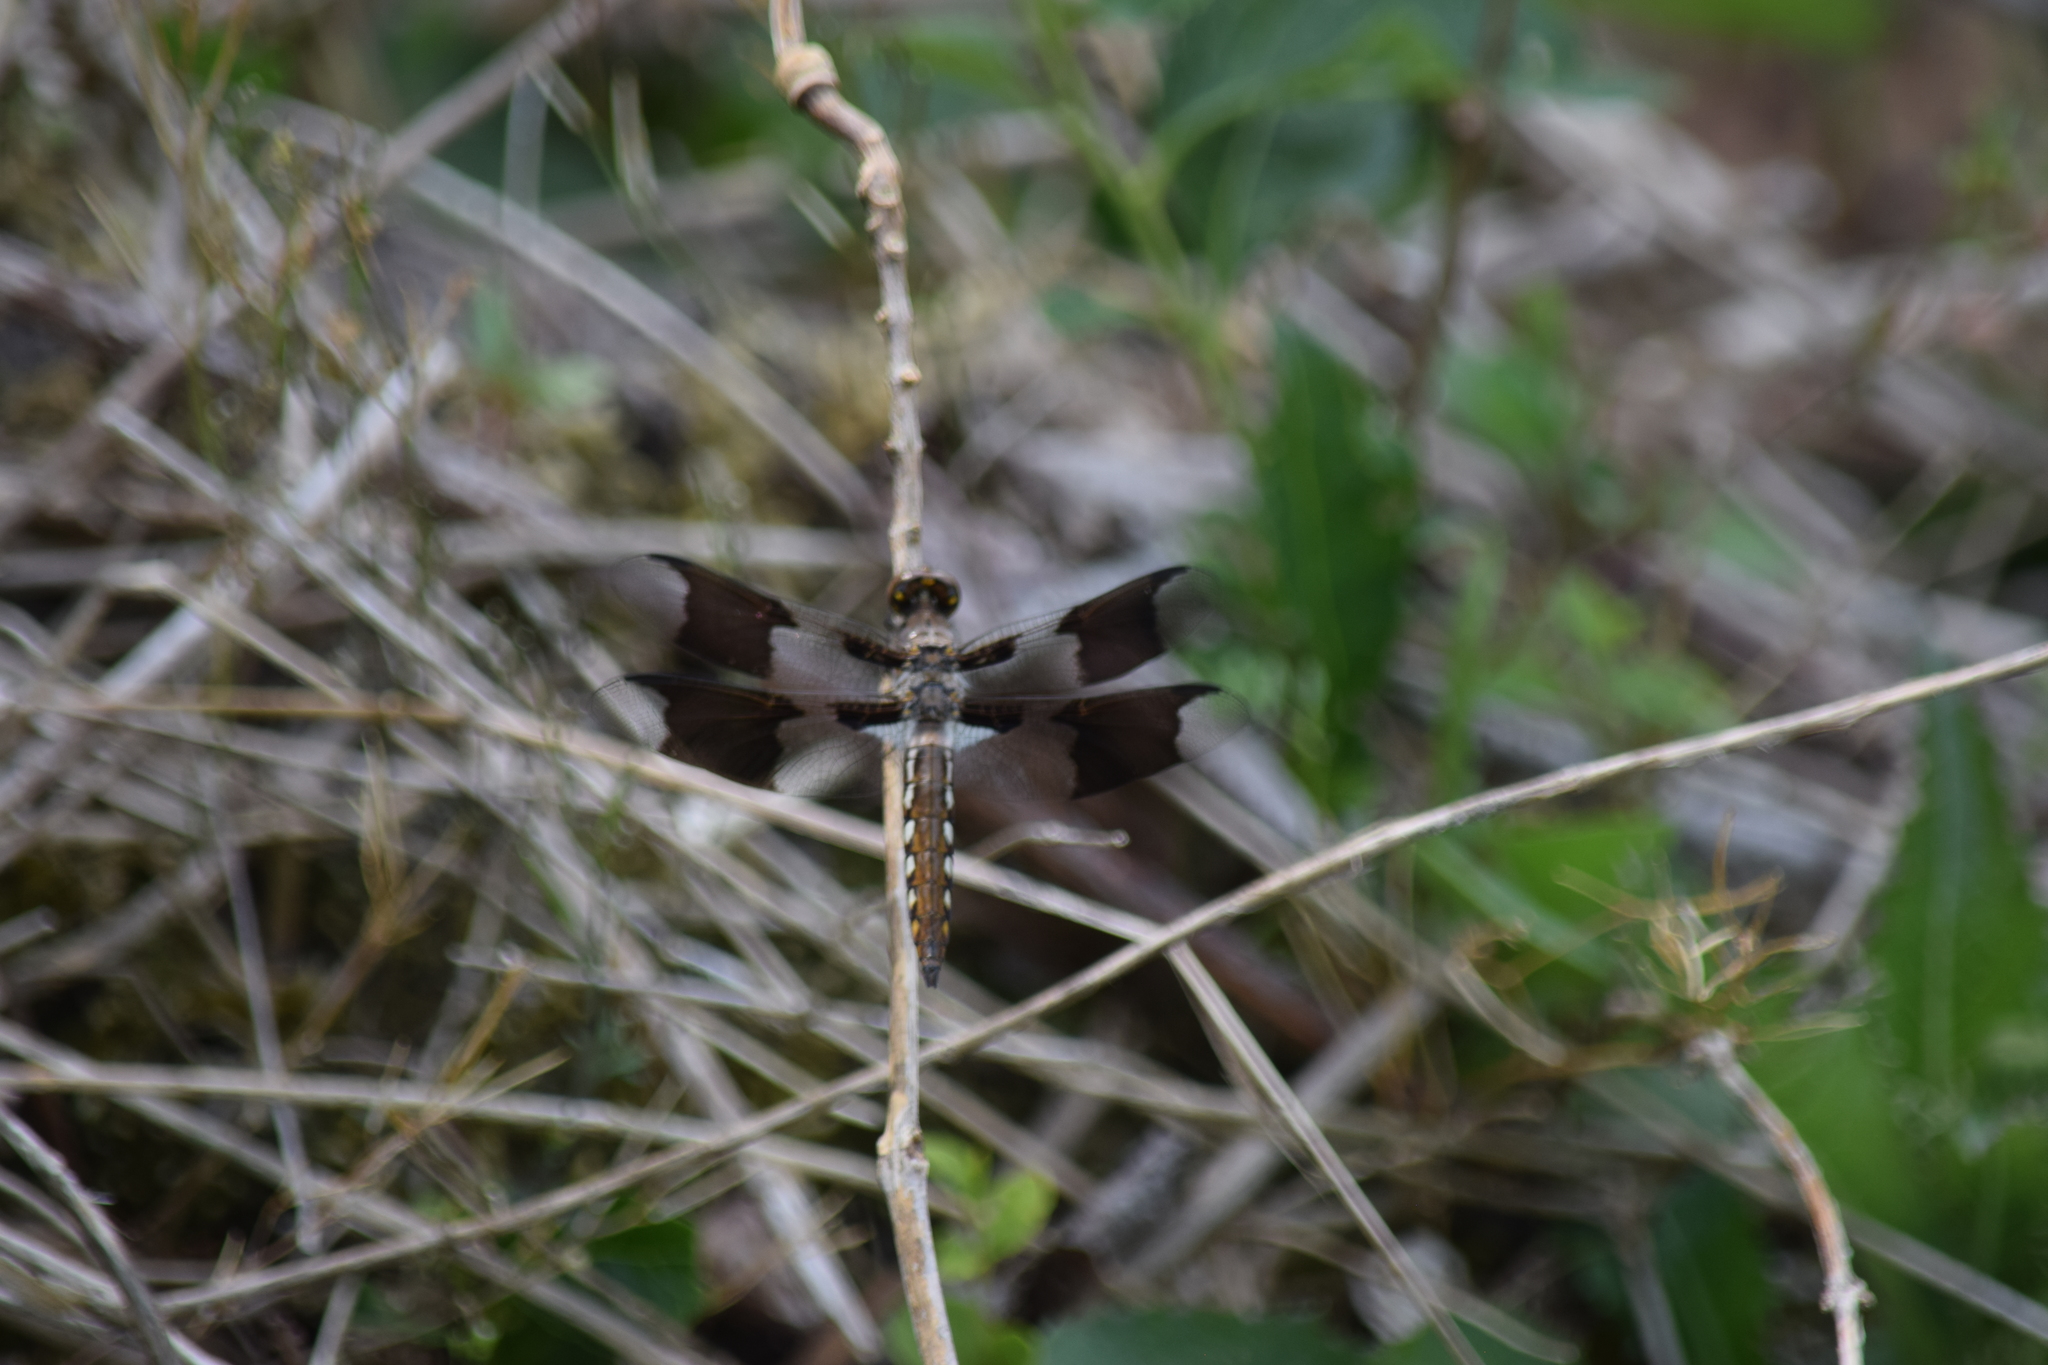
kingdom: Animalia
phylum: Arthropoda
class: Insecta
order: Odonata
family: Libellulidae
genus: Plathemis
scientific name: Plathemis lydia
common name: Common whitetail
